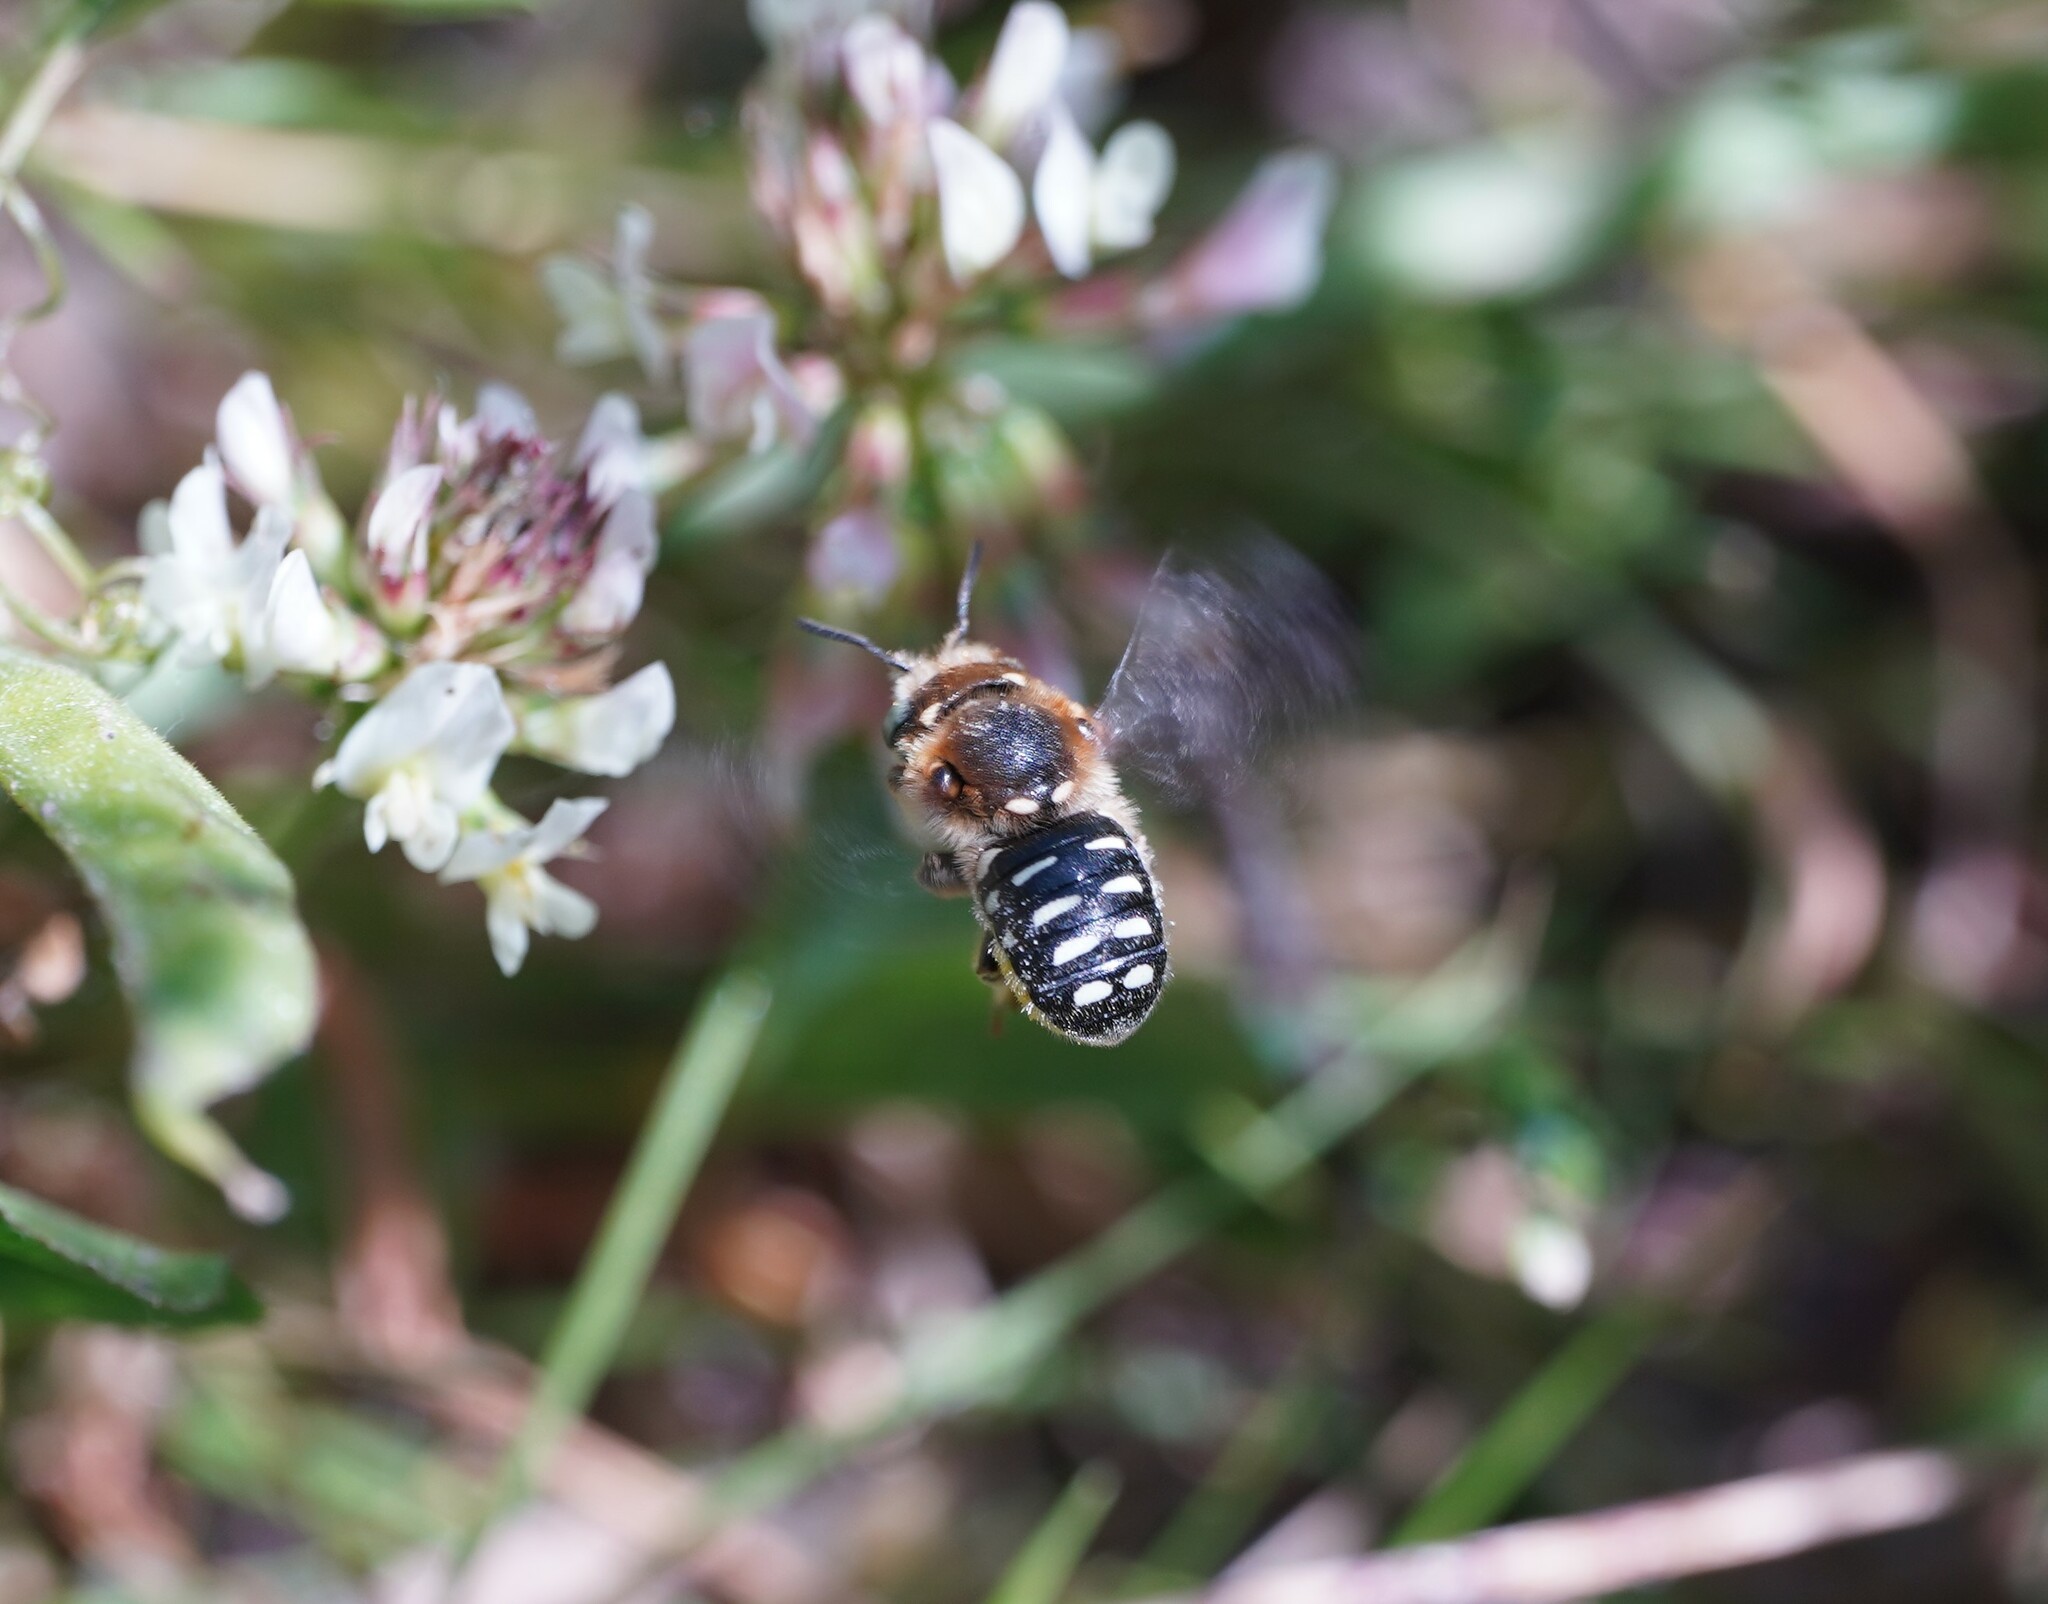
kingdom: Animalia
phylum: Arthropoda
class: Insecta
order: Hymenoptera
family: Megachilidae
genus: Anthidium
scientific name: Anthidium punctatum
